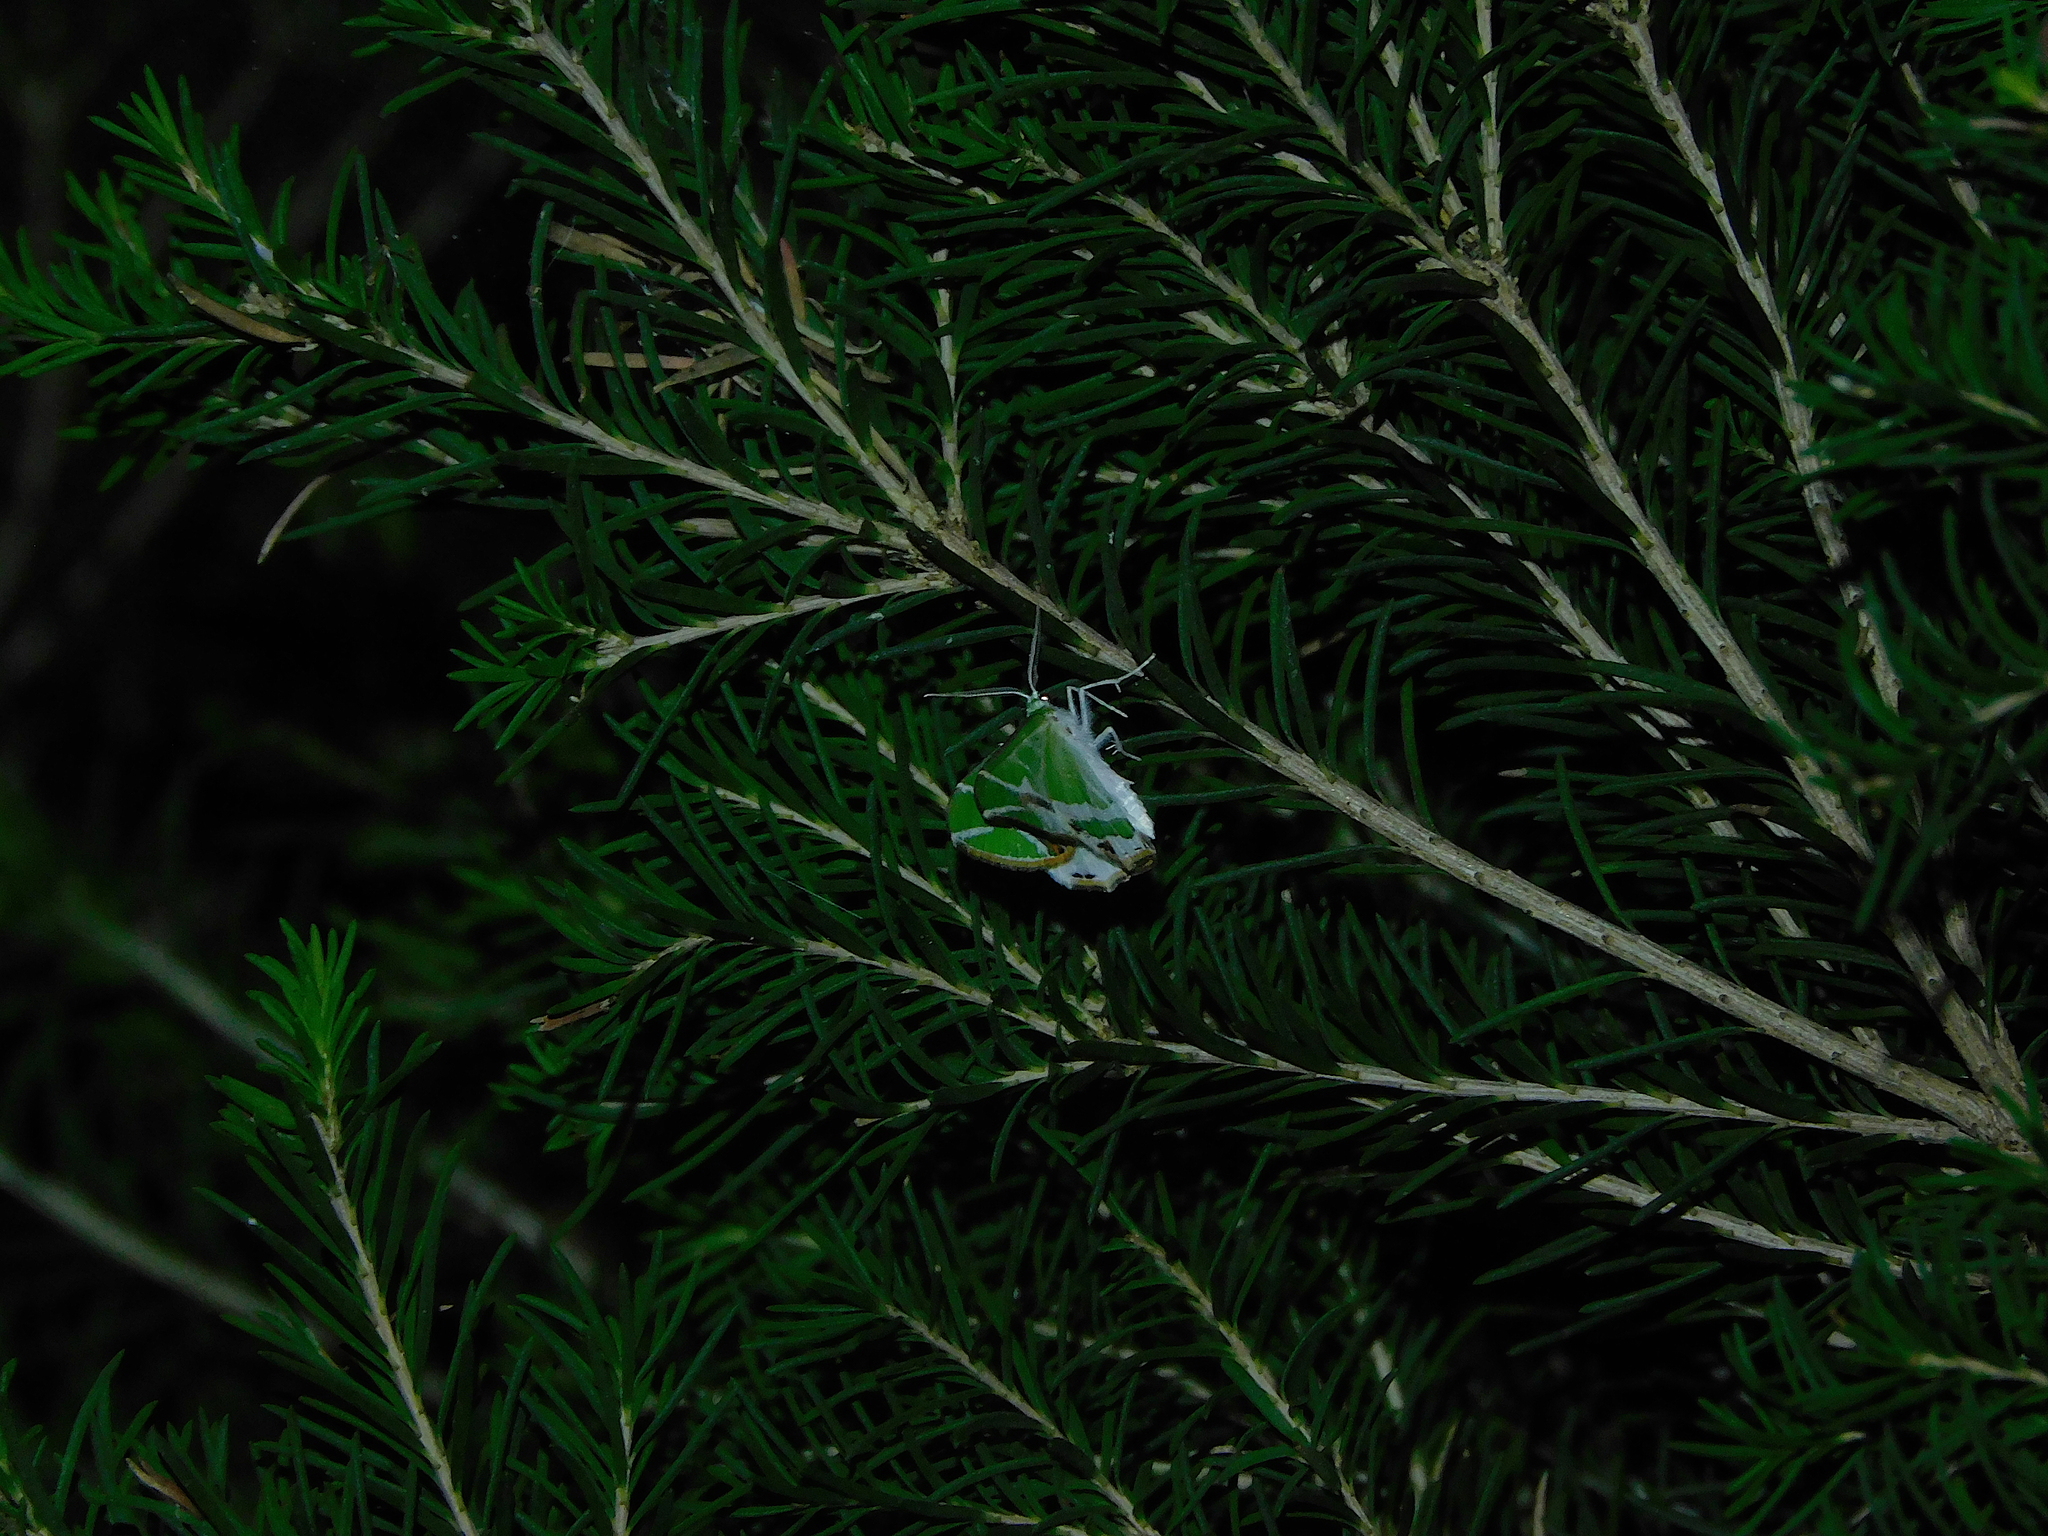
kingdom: Animalia
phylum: Arthropoda
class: Insecta
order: Lepidoptera
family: Geometridae
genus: Chlorodes
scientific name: Chlorodes boisduvalaria
